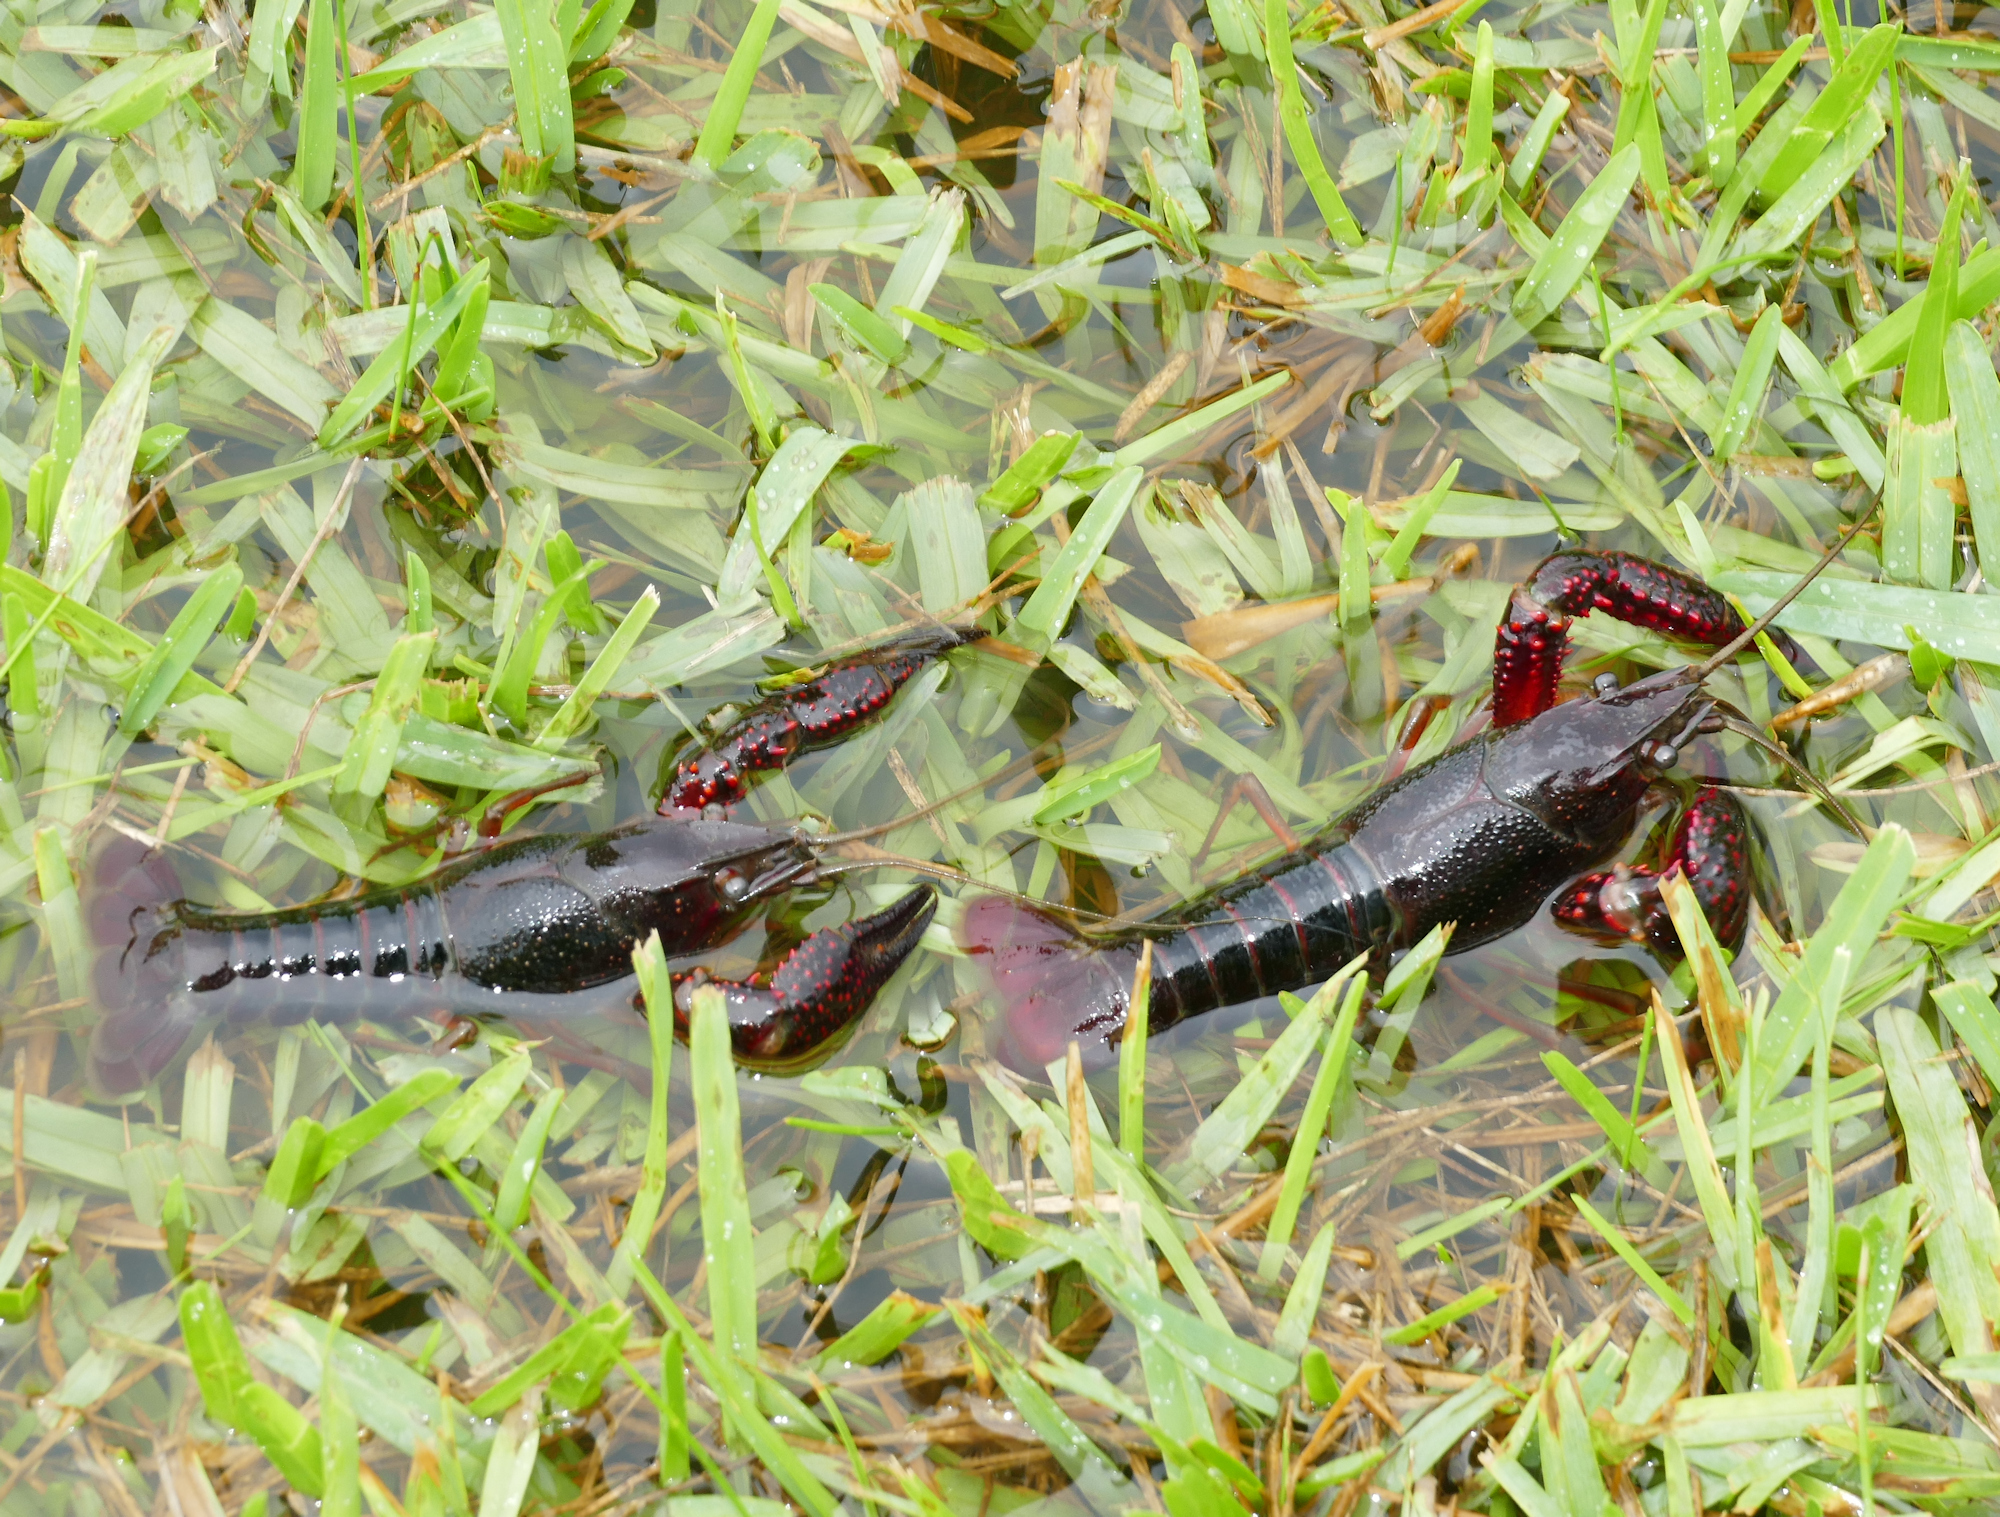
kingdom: Animalia
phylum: Arthropoda
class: Malacostraca
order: Decapoda
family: Cambaridae
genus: Procambarus
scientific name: Procambarus clarkii
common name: Red swamp crayfish
